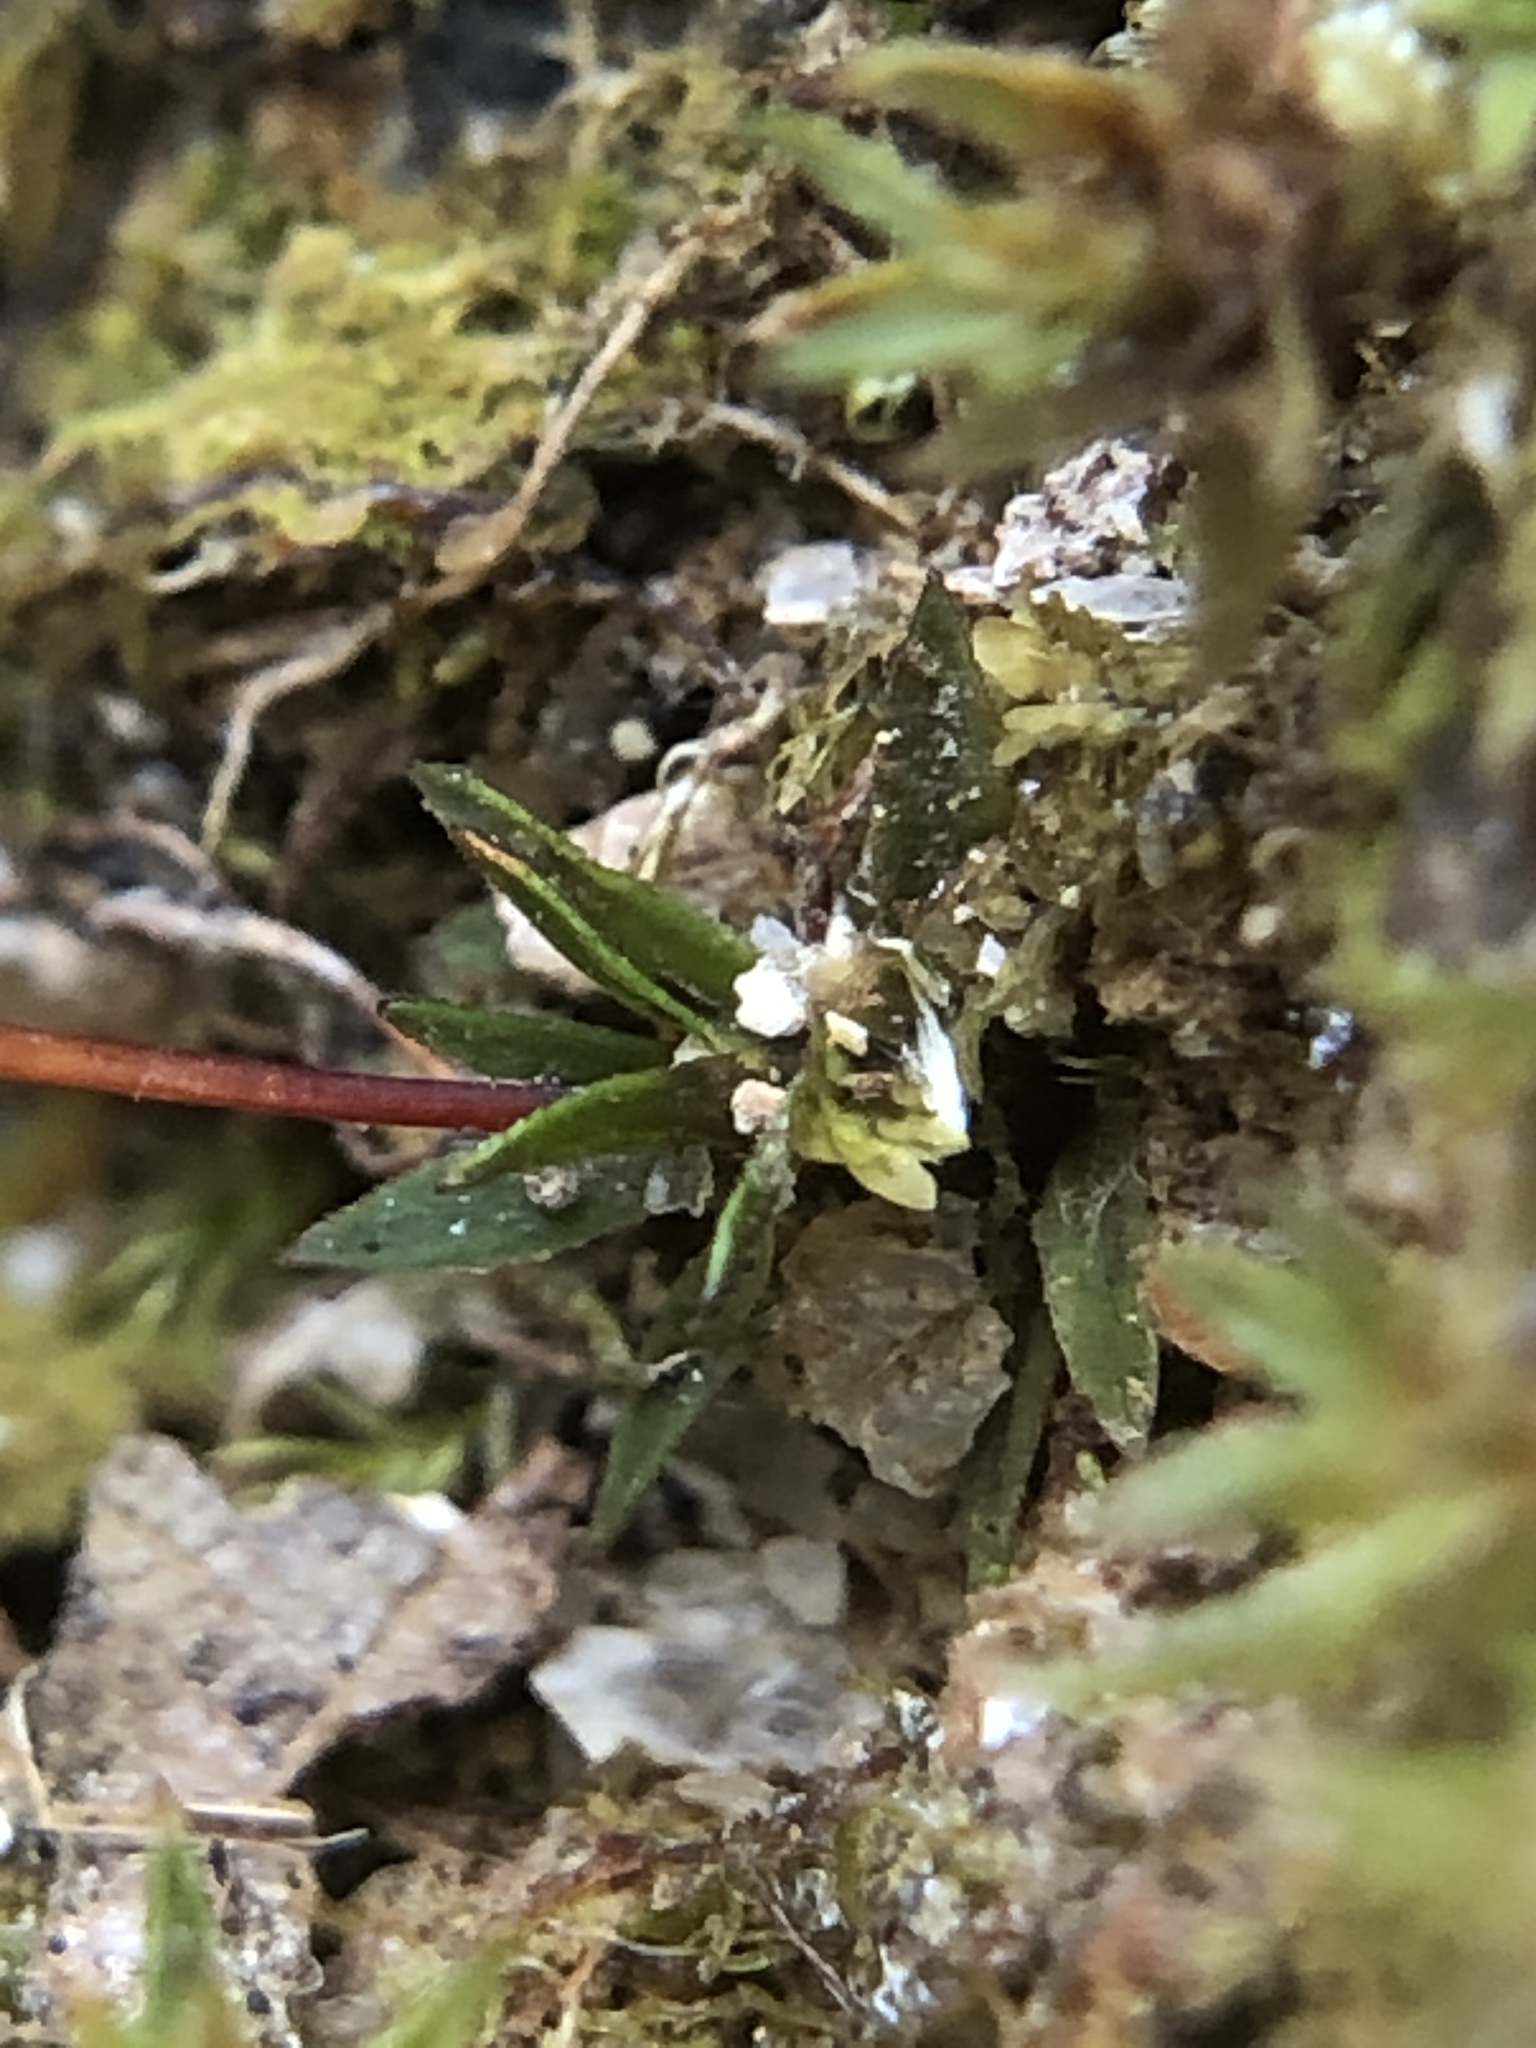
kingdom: Plantae
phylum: Bryophyta
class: Polytrichopsida
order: Polytrichales
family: Polytrichaceae
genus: Pogonatum
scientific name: Pogonatum aloides
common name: Aloe haircap
